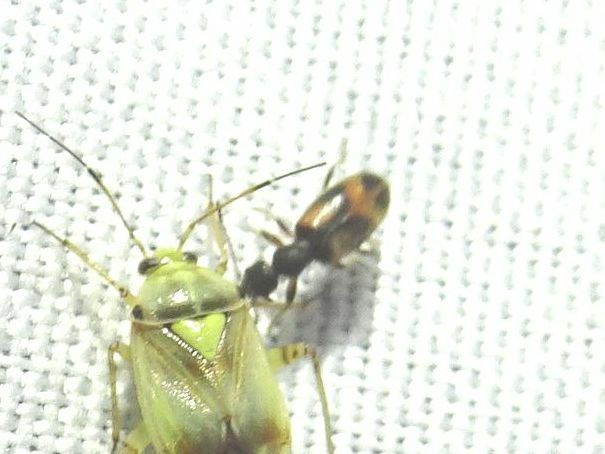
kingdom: Animalia
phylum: Arthropoda
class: Insecta
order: Coleoptera
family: Anthicidae
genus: Anthicus
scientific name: Anthicus antherinus
